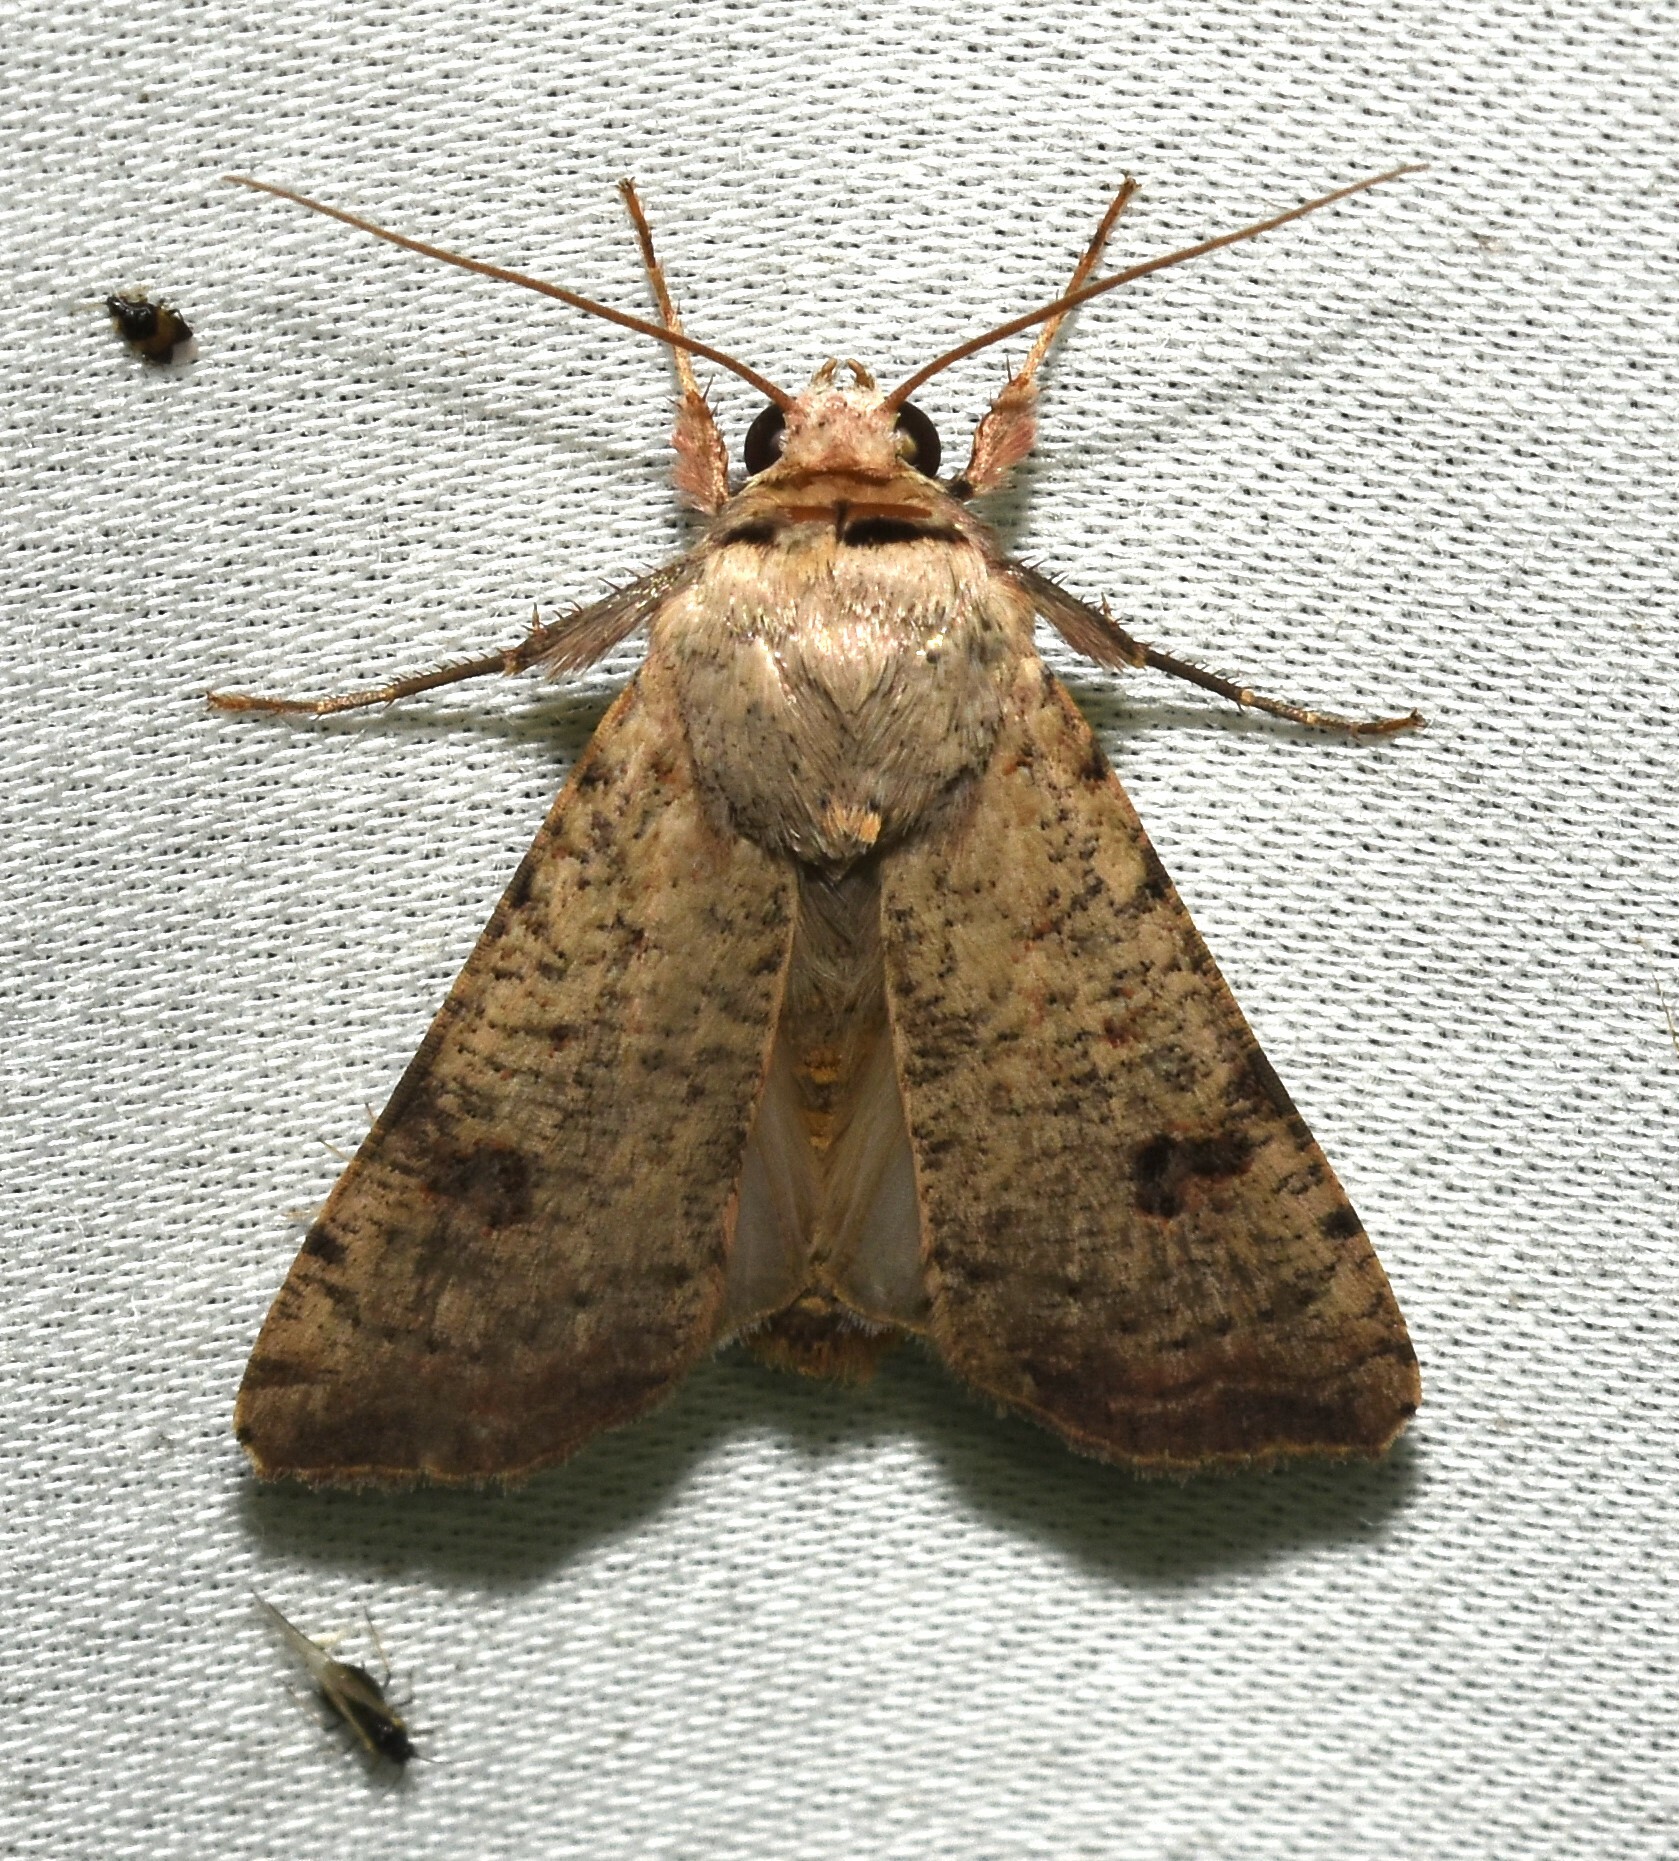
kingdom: Animalia
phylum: Arthropoda
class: Insecta
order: Lepidoptera
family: Noctuidae
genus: Anicla
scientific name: Anicla infecta
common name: Green cutworm
